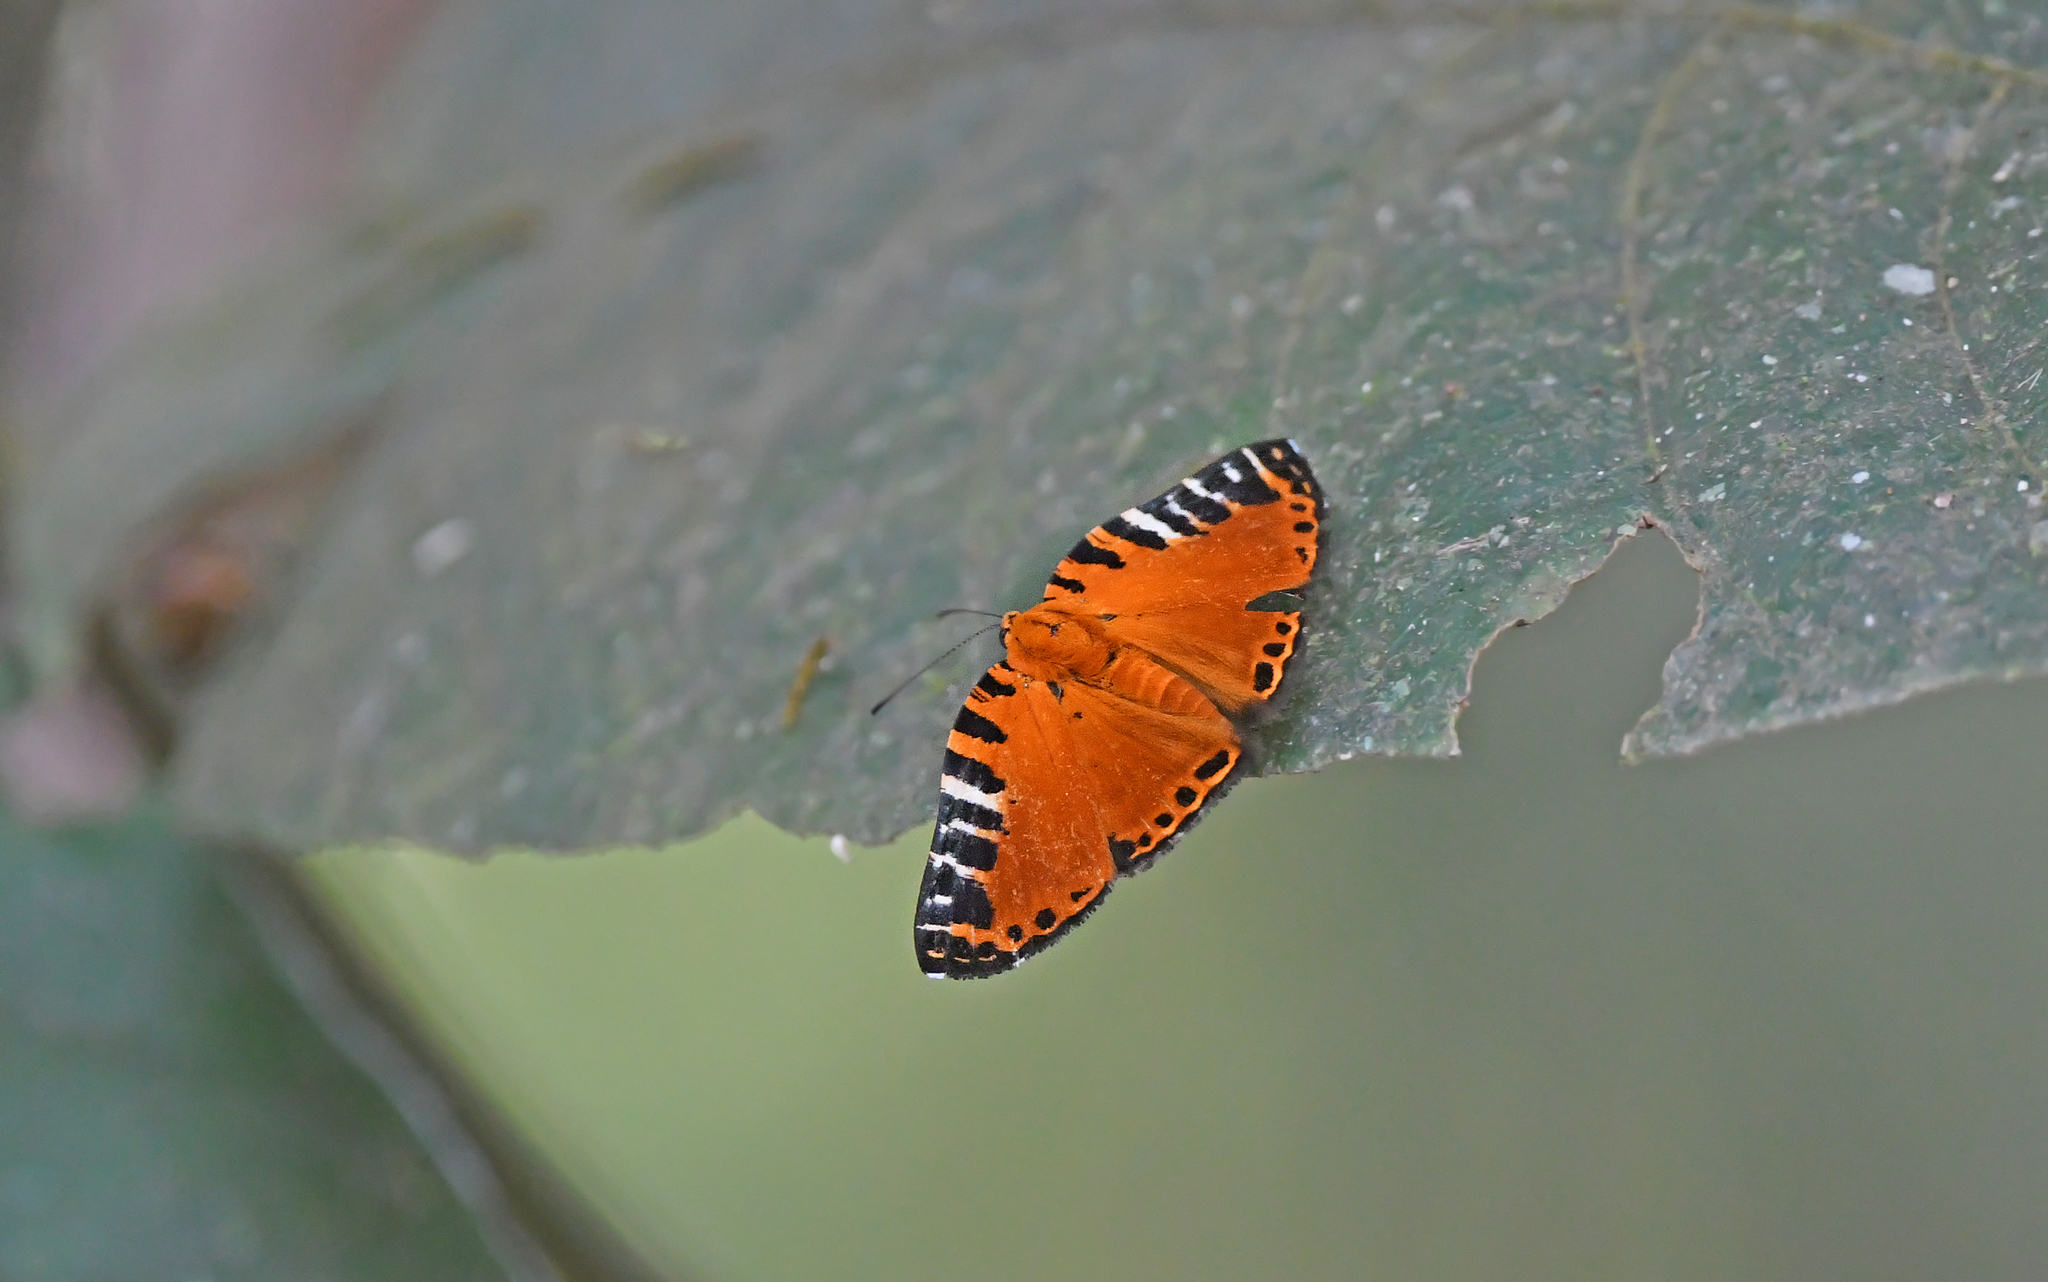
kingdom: Animalia
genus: Symmachia
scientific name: Symmachia virgatula
